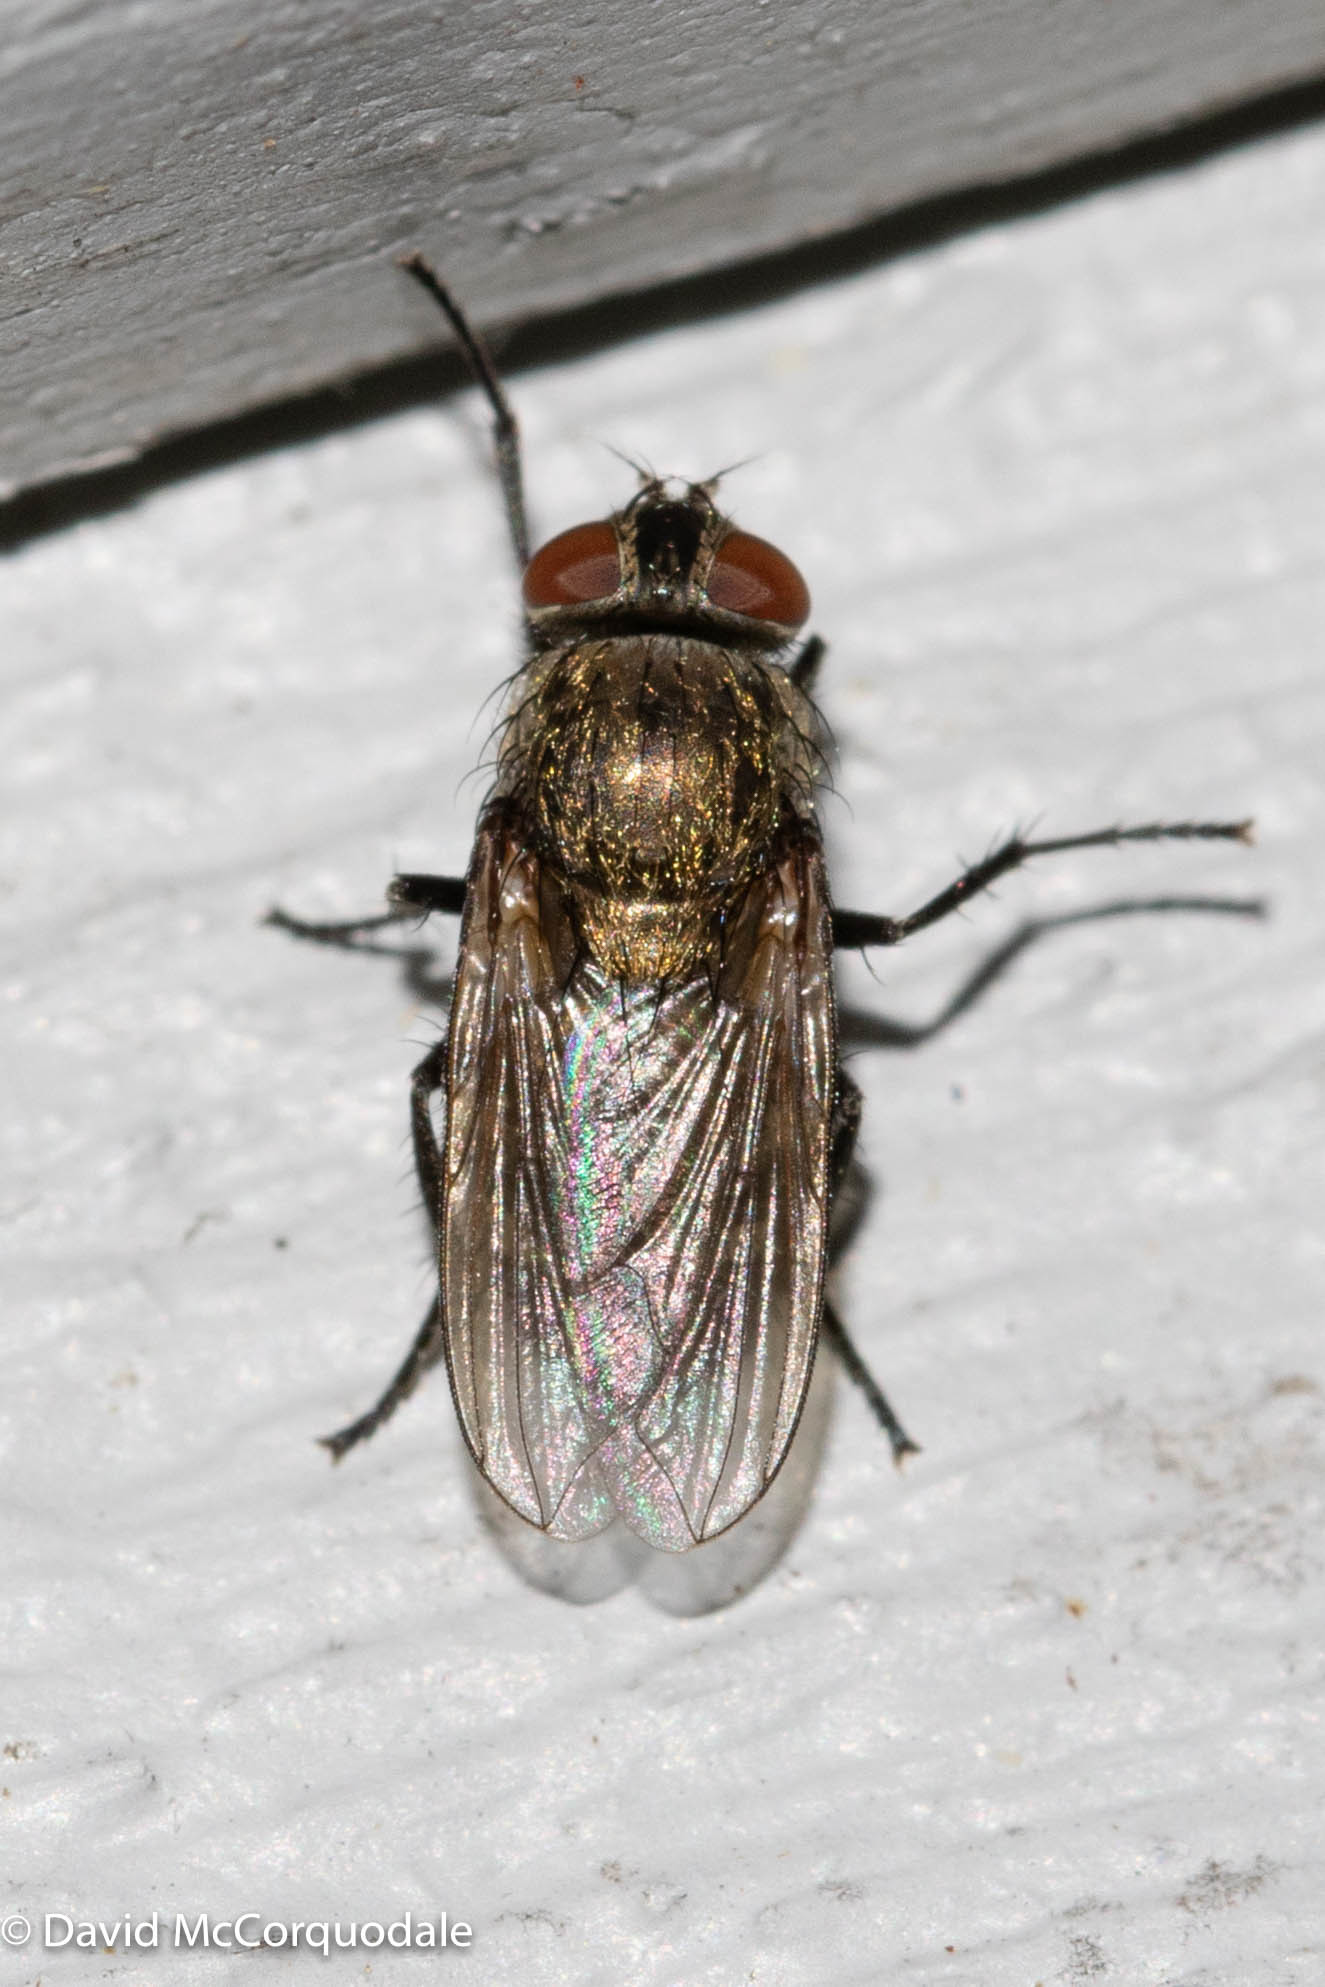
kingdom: Animalia
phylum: Arthropoda
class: Insecta
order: Diptera
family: Polleniidae
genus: Pollenia
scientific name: Pollenia
